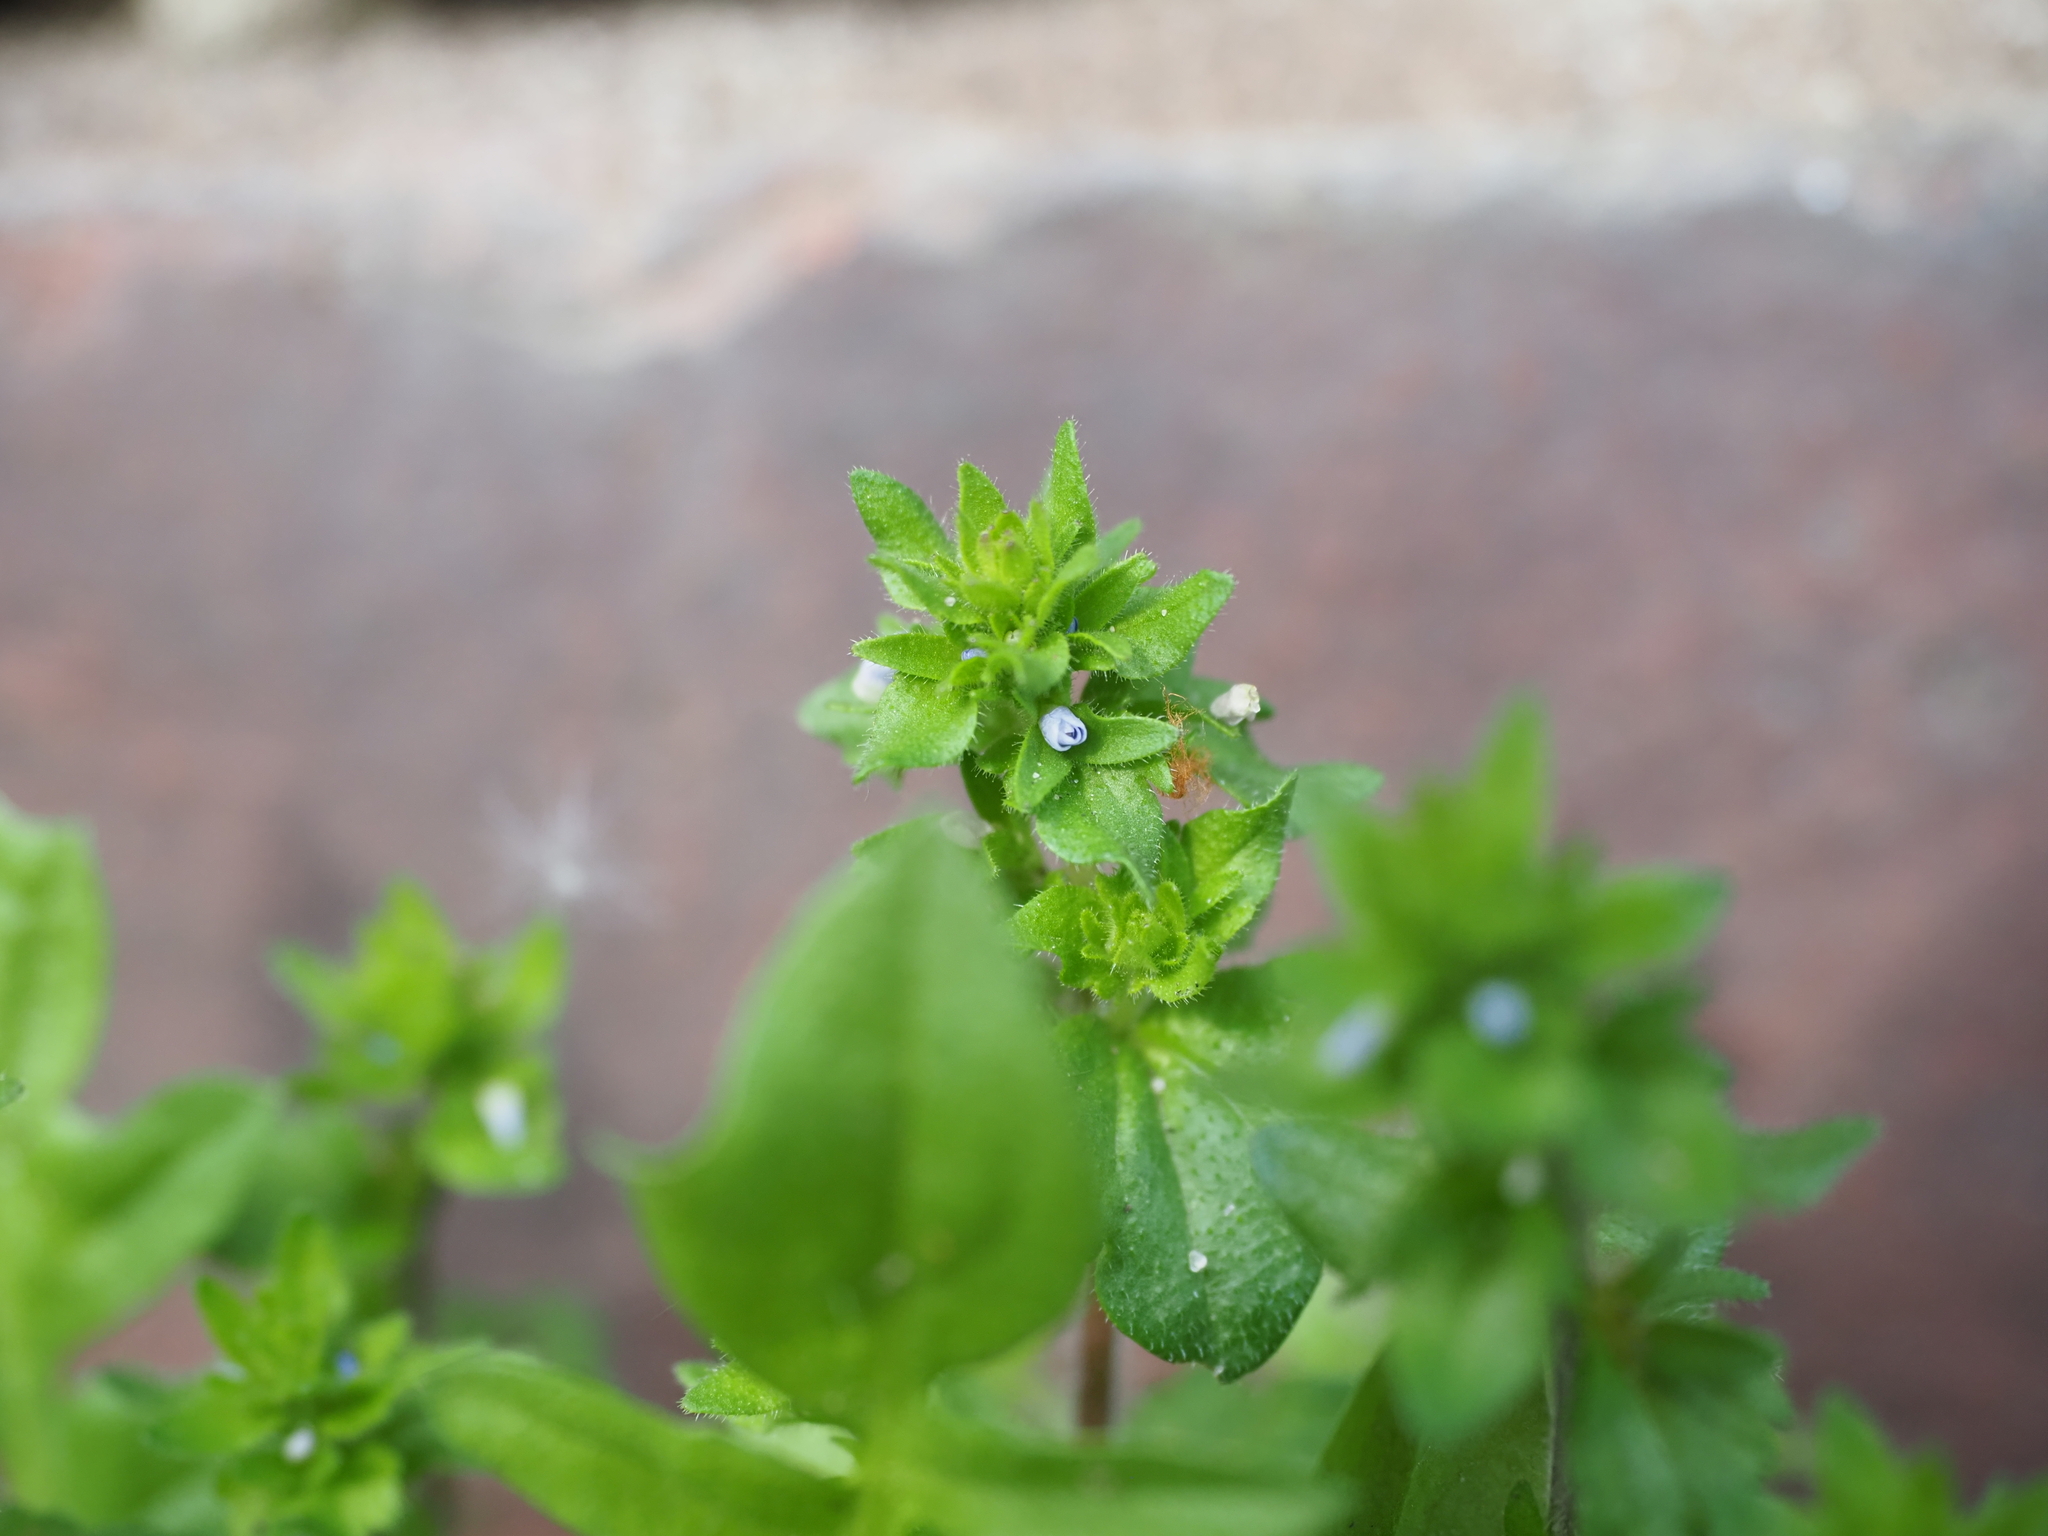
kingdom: Plantae
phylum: Tracheophyta
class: Magnoliopsida
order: Lamiales
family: Plantaginaceae
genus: Veronica
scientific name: Veronica arvensis
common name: Corn speedwell
